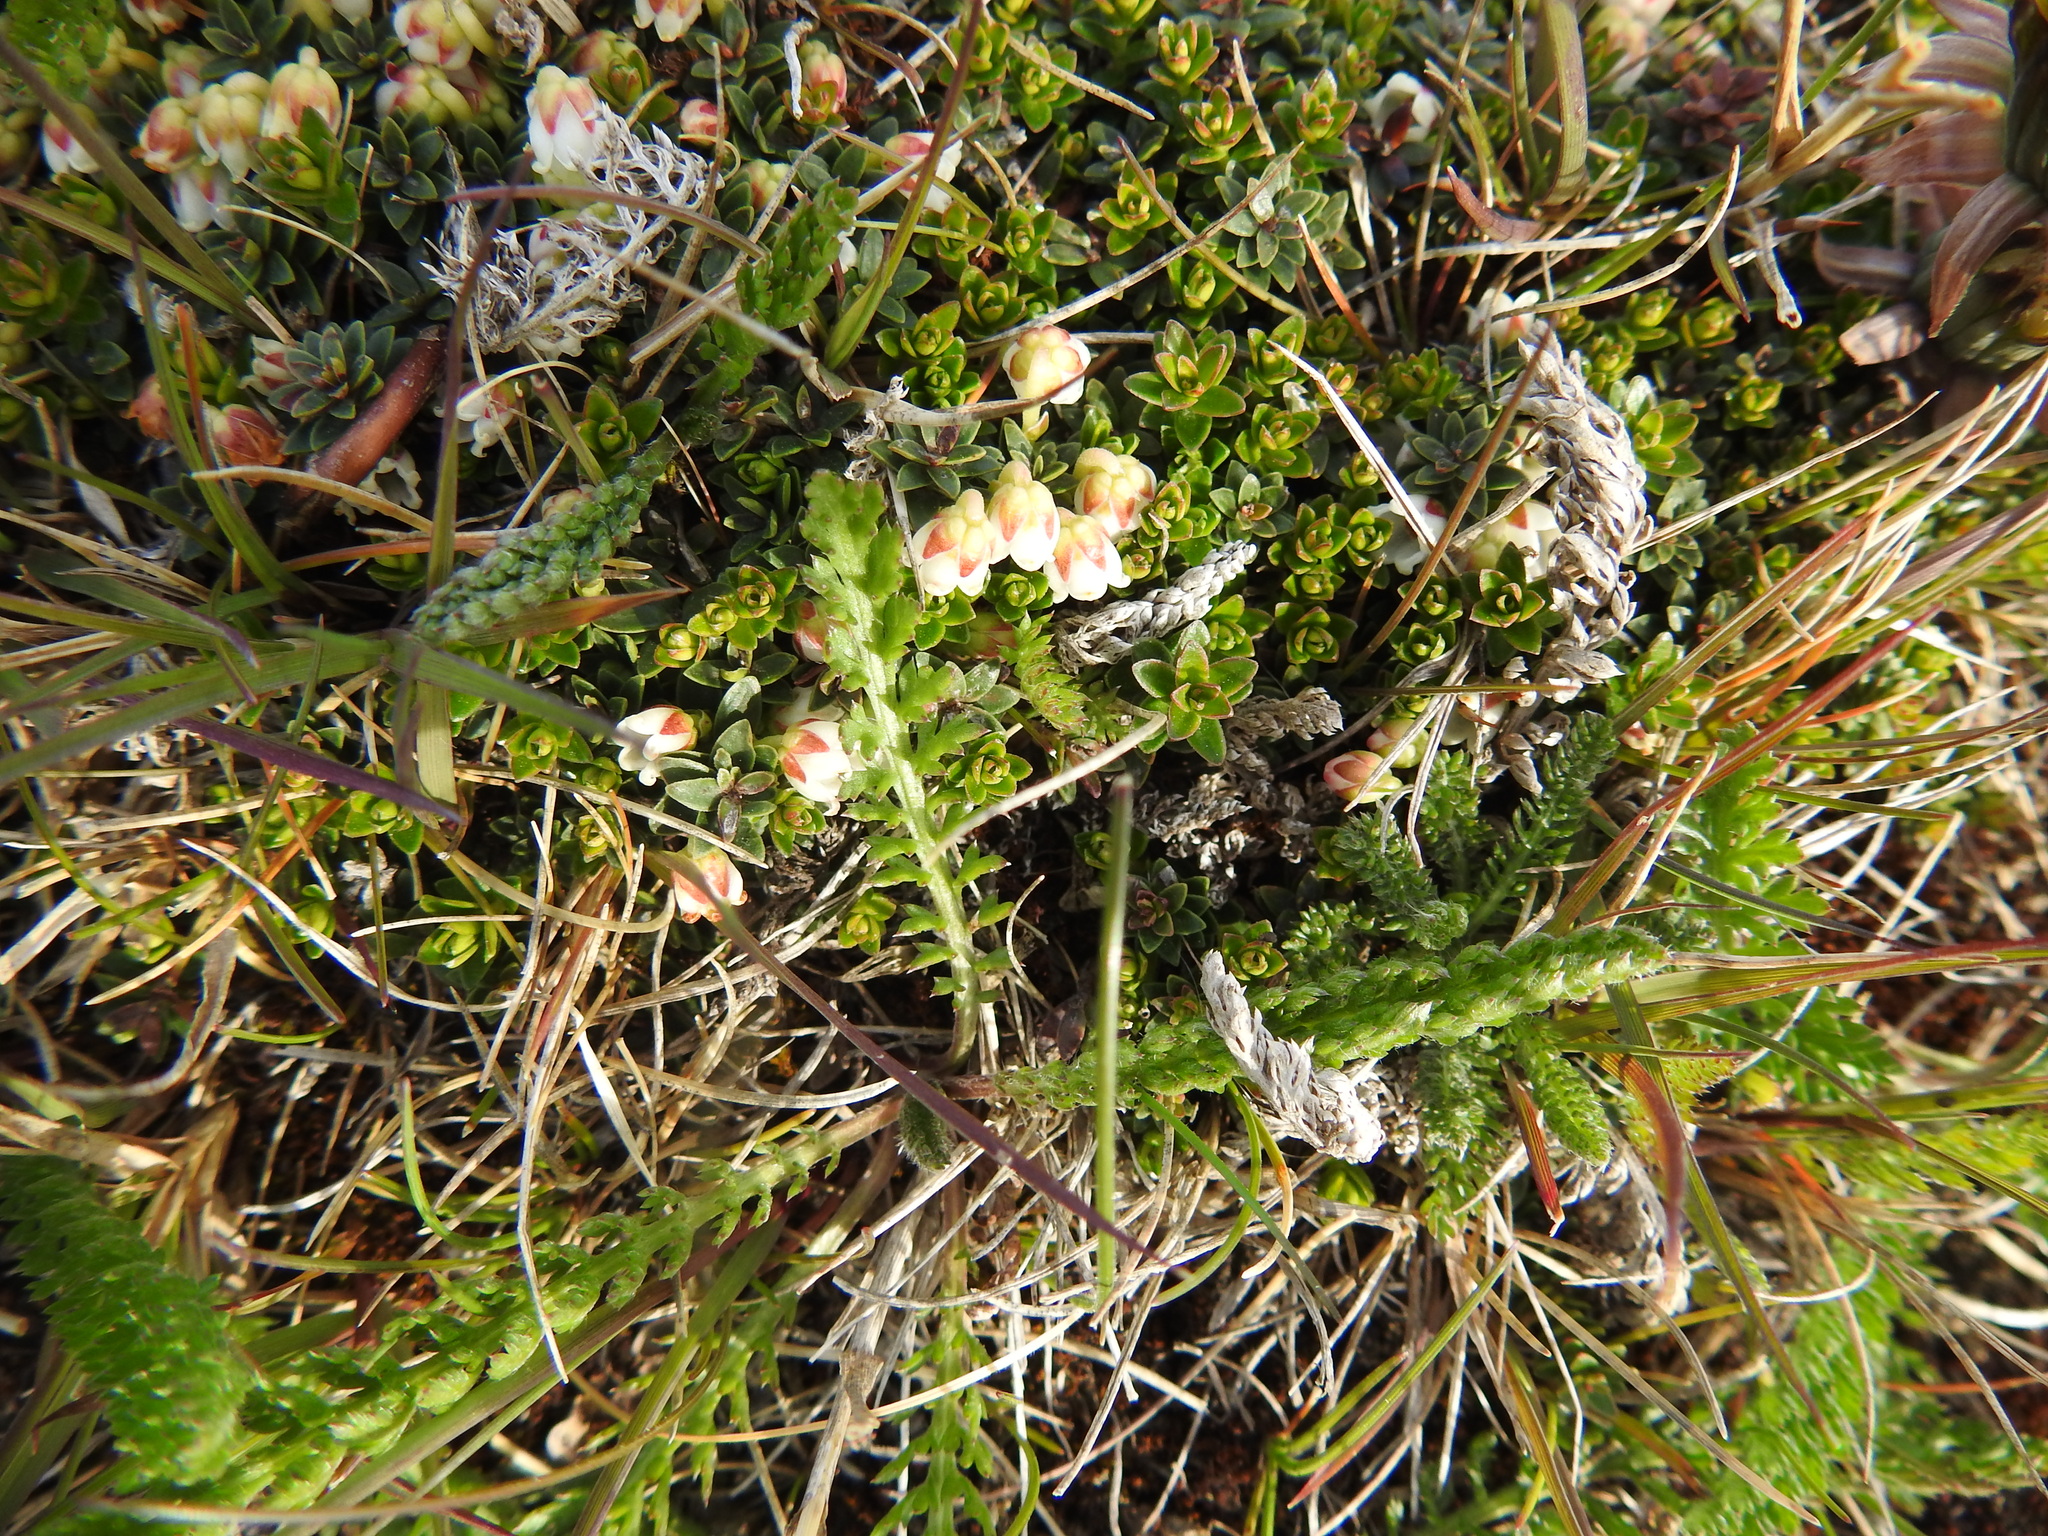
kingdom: Plantae
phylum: Tracheophyta
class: Magnoliopsida
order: Ericales
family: Ericaceae
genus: Gaultheria
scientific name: Gaultheria pumila
